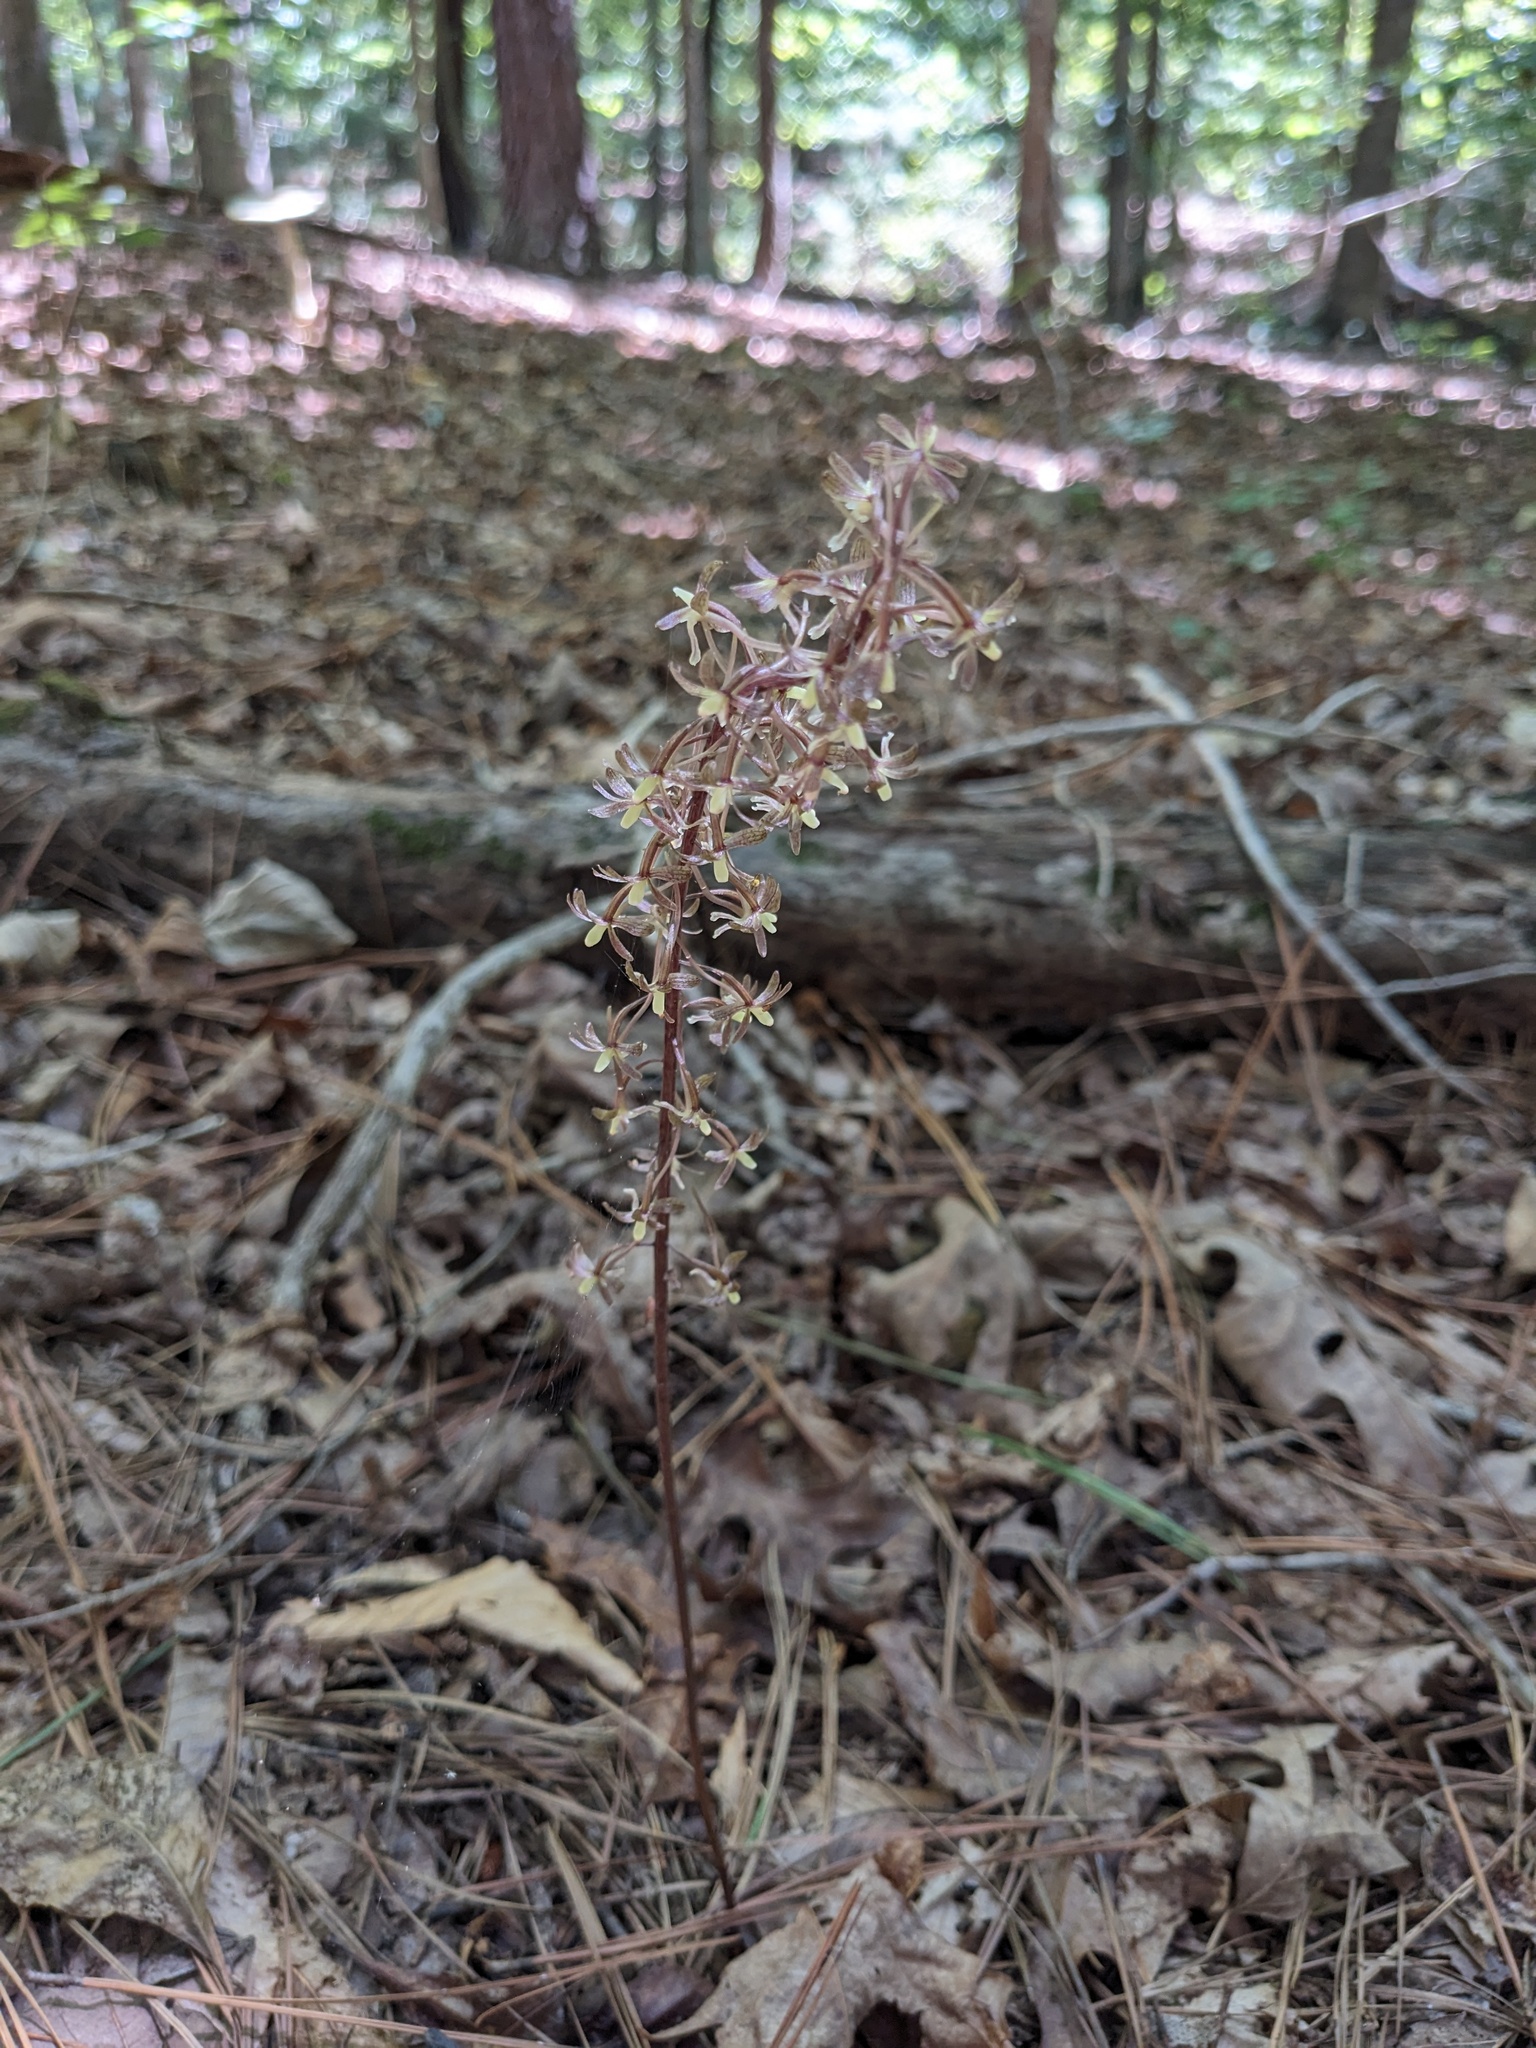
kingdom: Plantae
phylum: Tracheophyta
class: Liliopsida
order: Asparagales
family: Orchidaceae
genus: Tipularia
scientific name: Tipularia discolor
